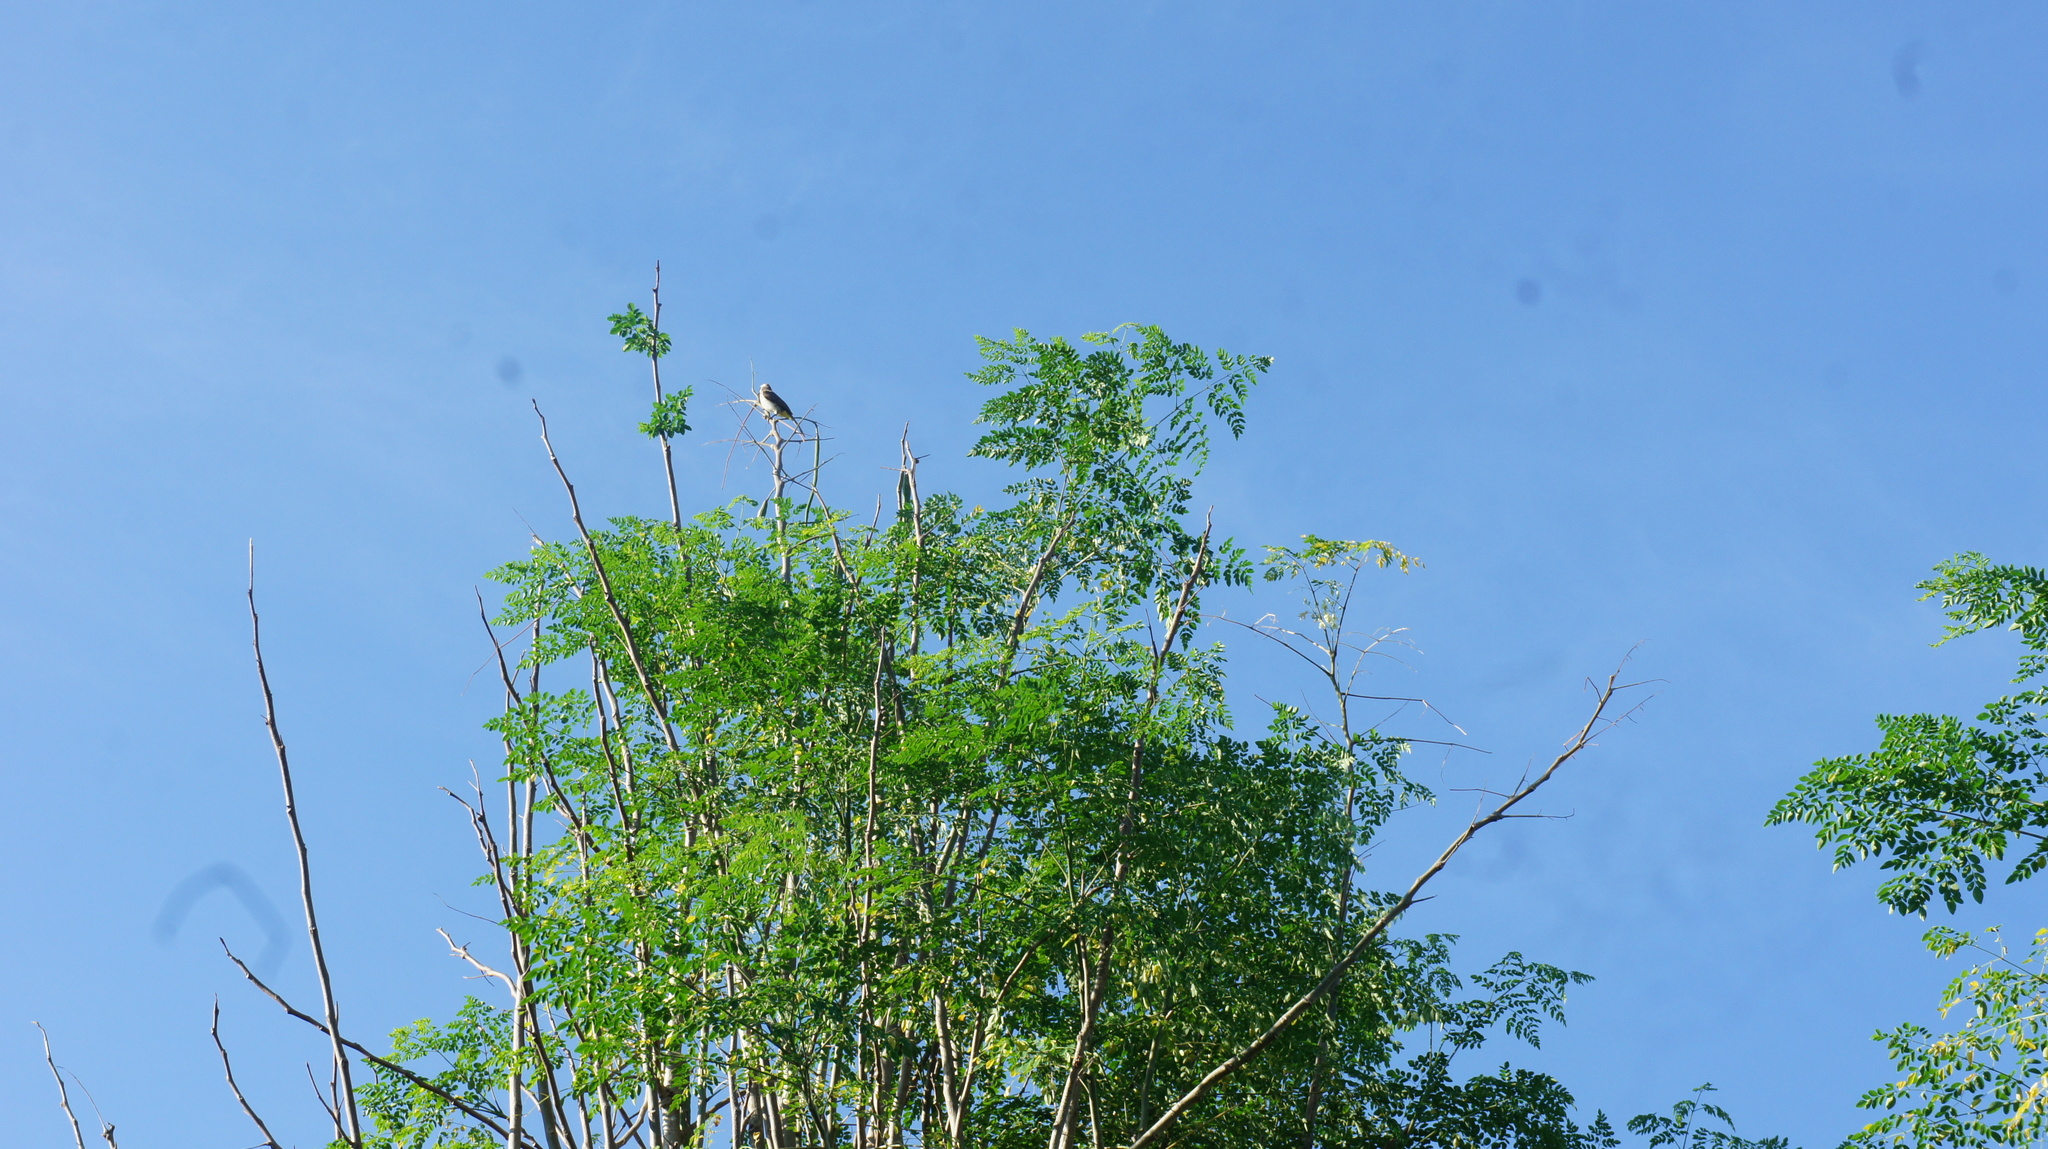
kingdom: Animalia
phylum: Chordata
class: Aves
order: Passeriformes
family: Pycnonotidae
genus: Pycnonotus
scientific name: Pycnonotus goiavier
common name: Yellow-vented bulbul
